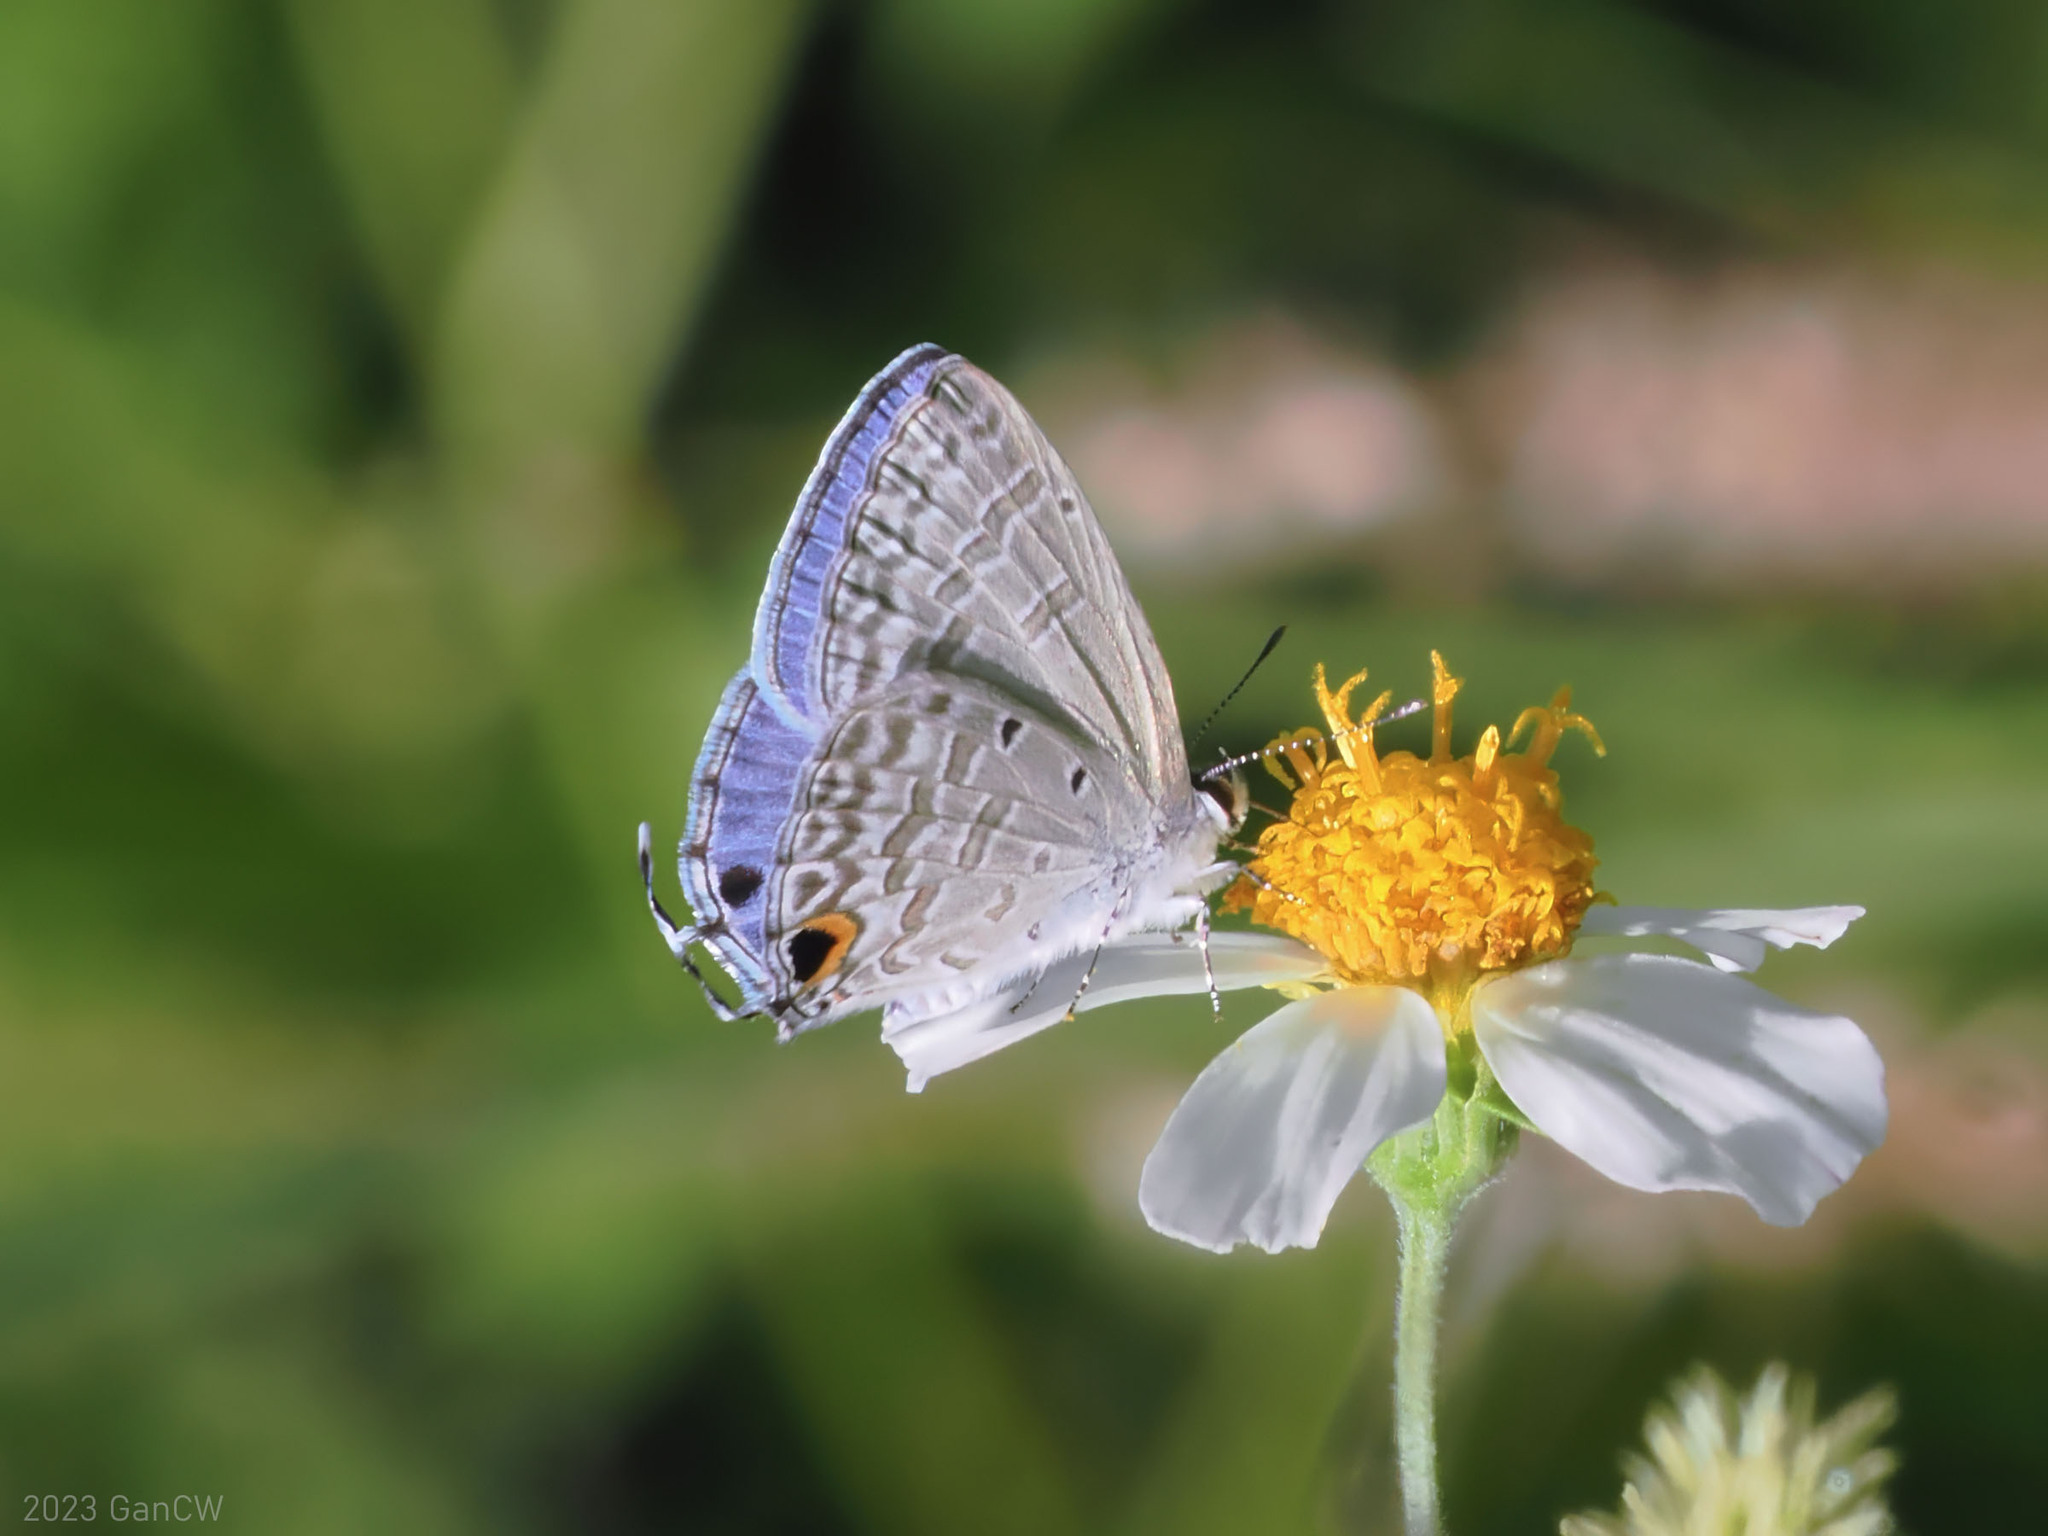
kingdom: Animalia
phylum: Arthropoda
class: Insecta
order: Lepidoptera
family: Lycaenidae
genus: Catochrysops
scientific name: Catochrysops panormus
